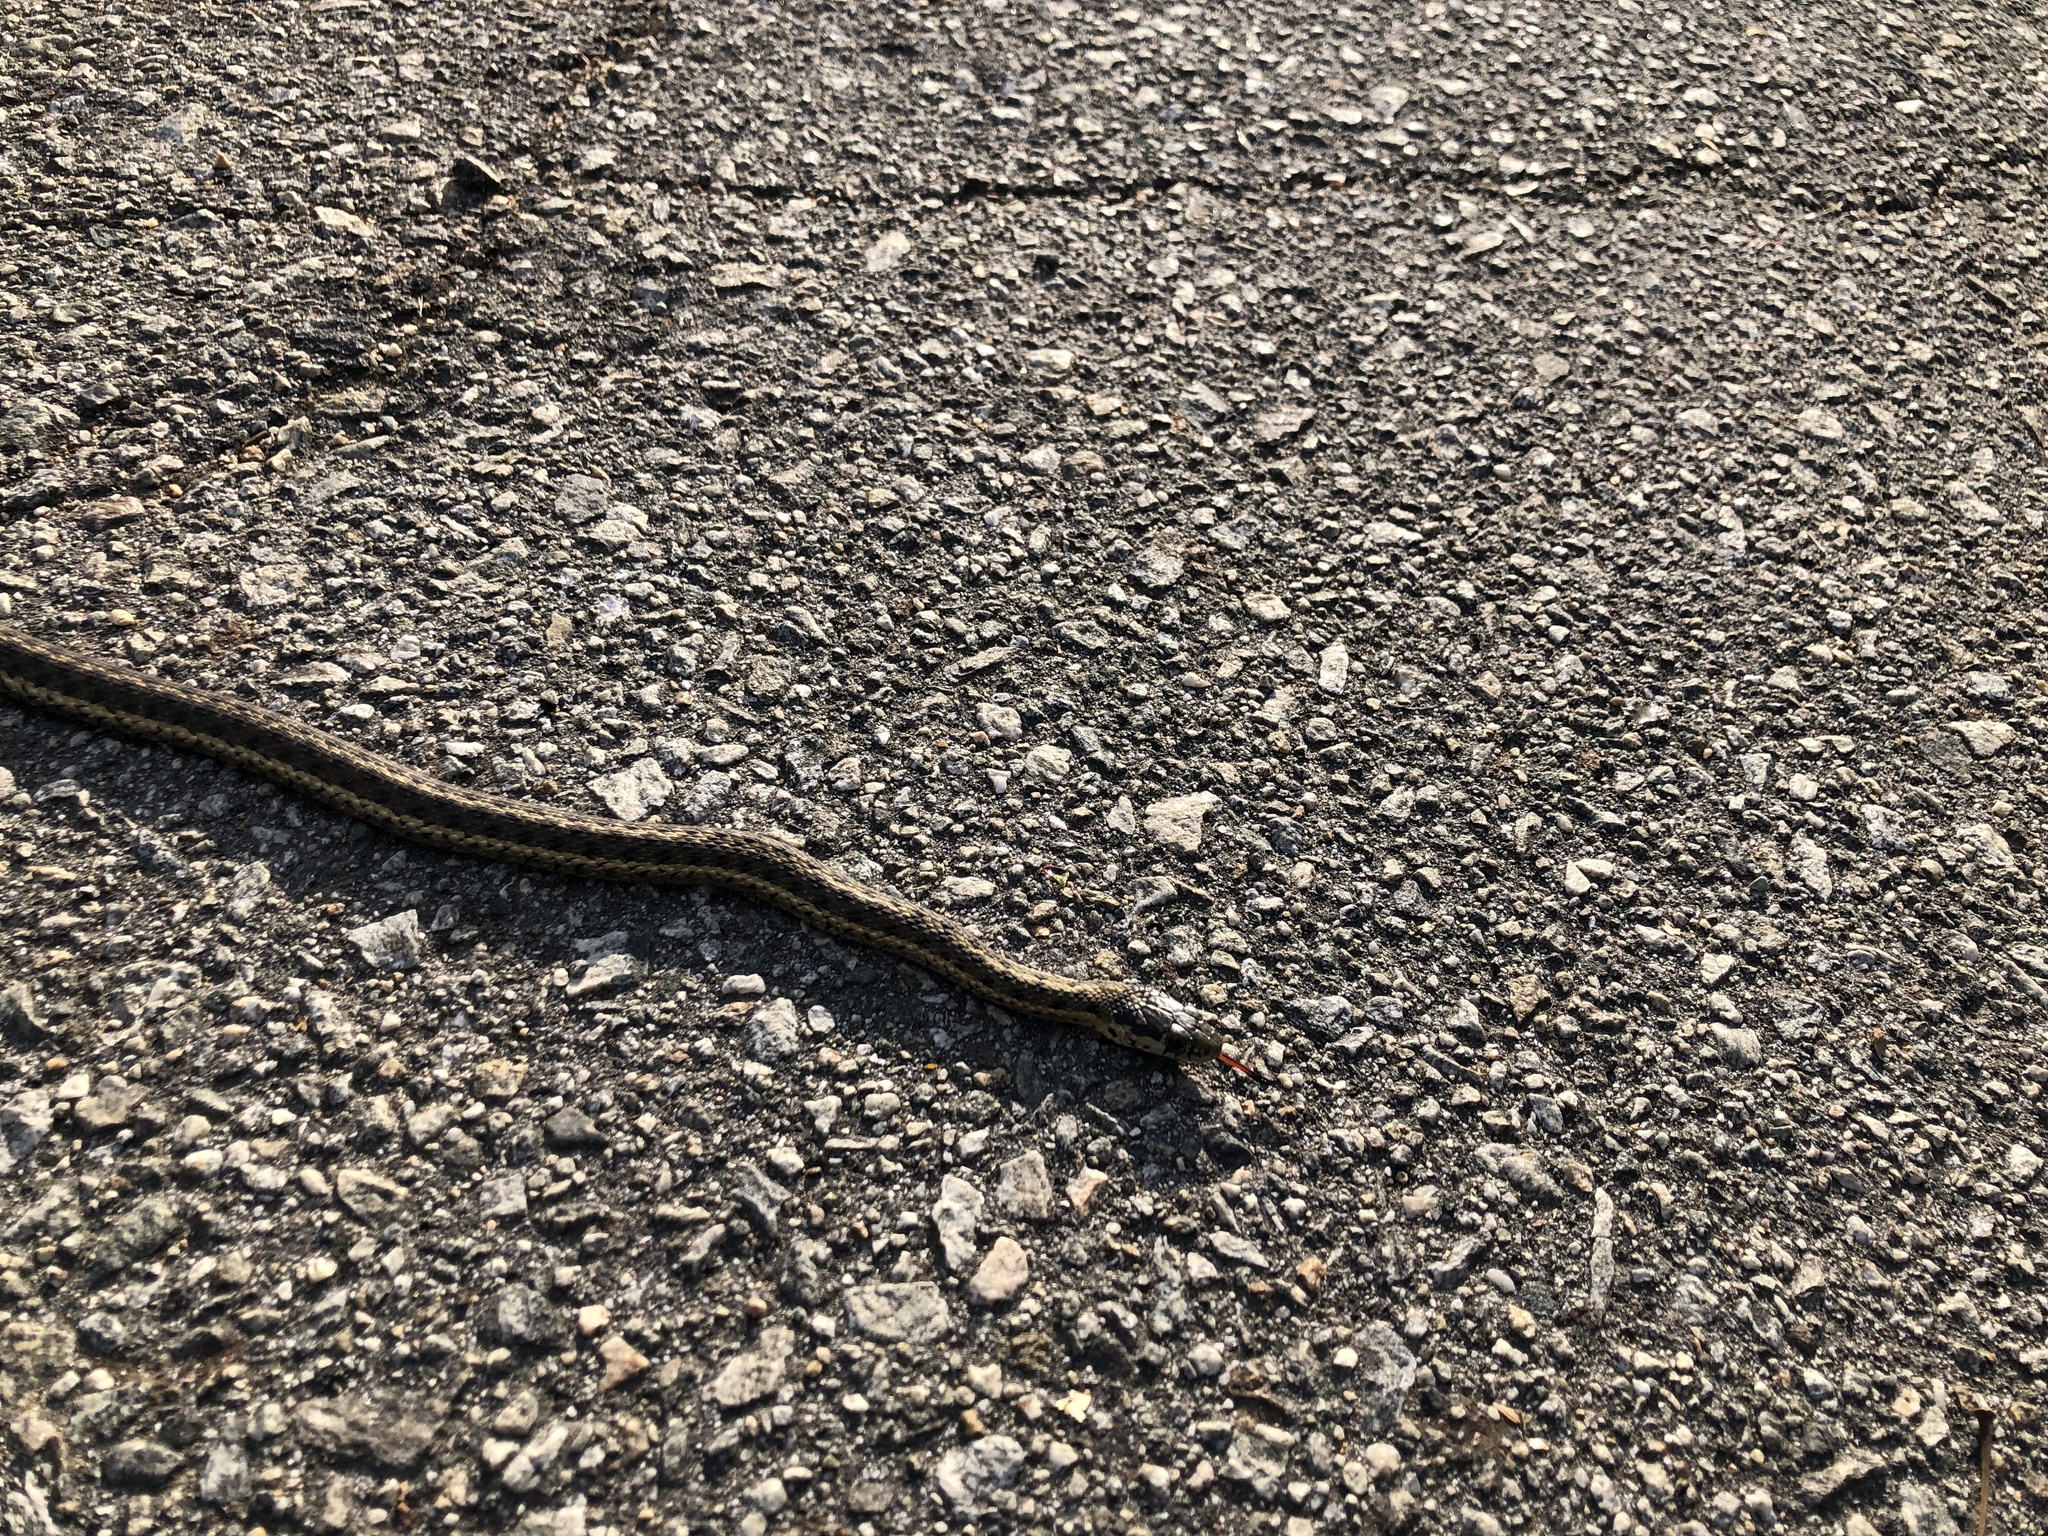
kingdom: Animalia
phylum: Chordata
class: Squamata
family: Colubridae
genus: Thamnophis
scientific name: Thamnophis elegans
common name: Western terrestrial garter snake
